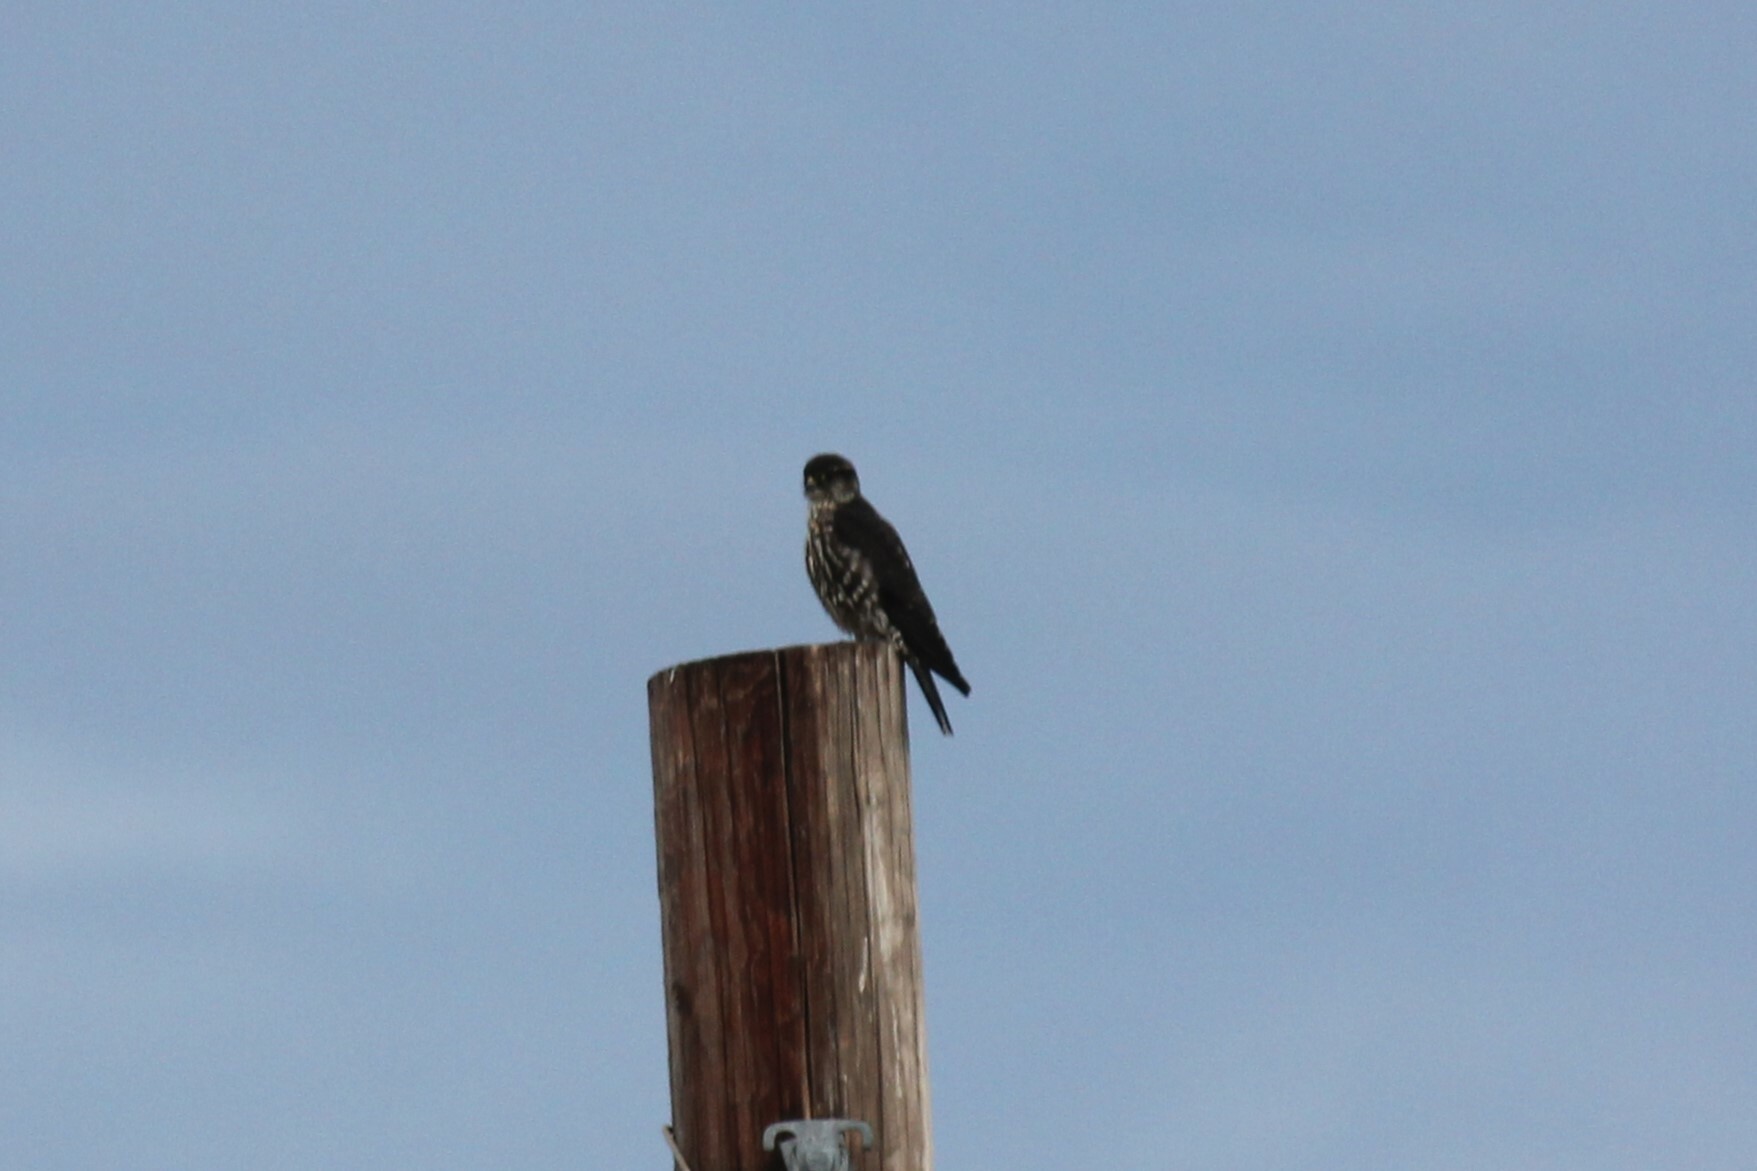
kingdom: Animalia
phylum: Chordata
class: Aves
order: Falconiformes
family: Falconidae
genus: Falco
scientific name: Falco columbarius
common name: Merlin
